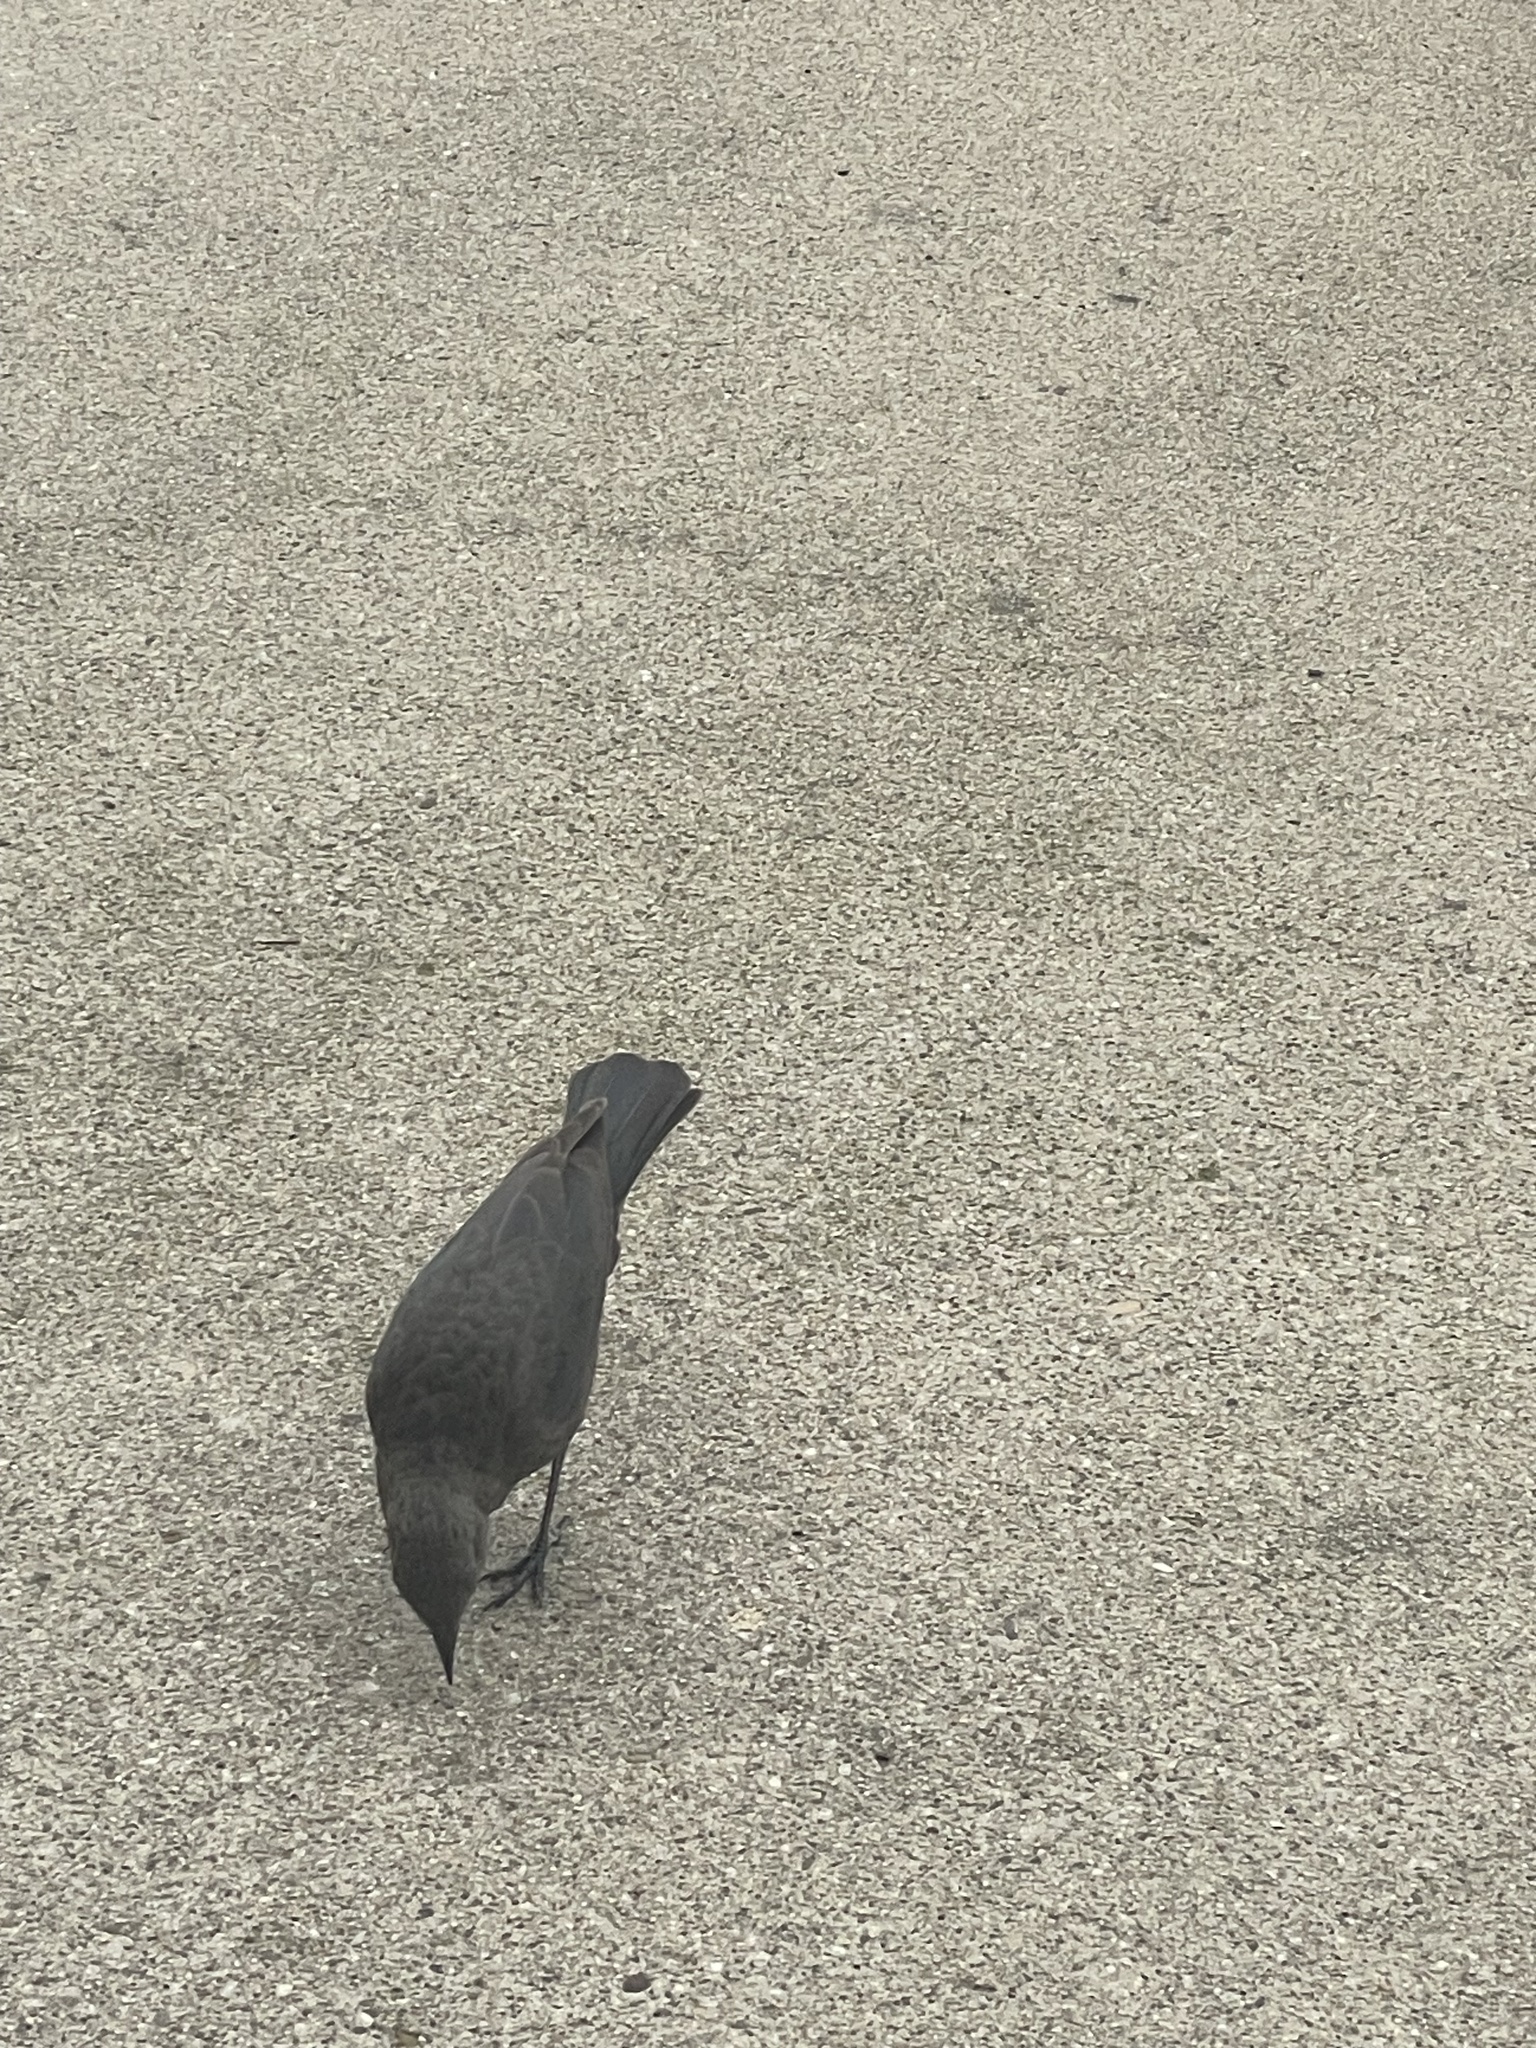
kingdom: Animalia
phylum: Chordata
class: Aves
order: Passeriformes
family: Icteridae
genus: Euphagus
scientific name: Euphagus cyanocephalus
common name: Brewer's blackbird
